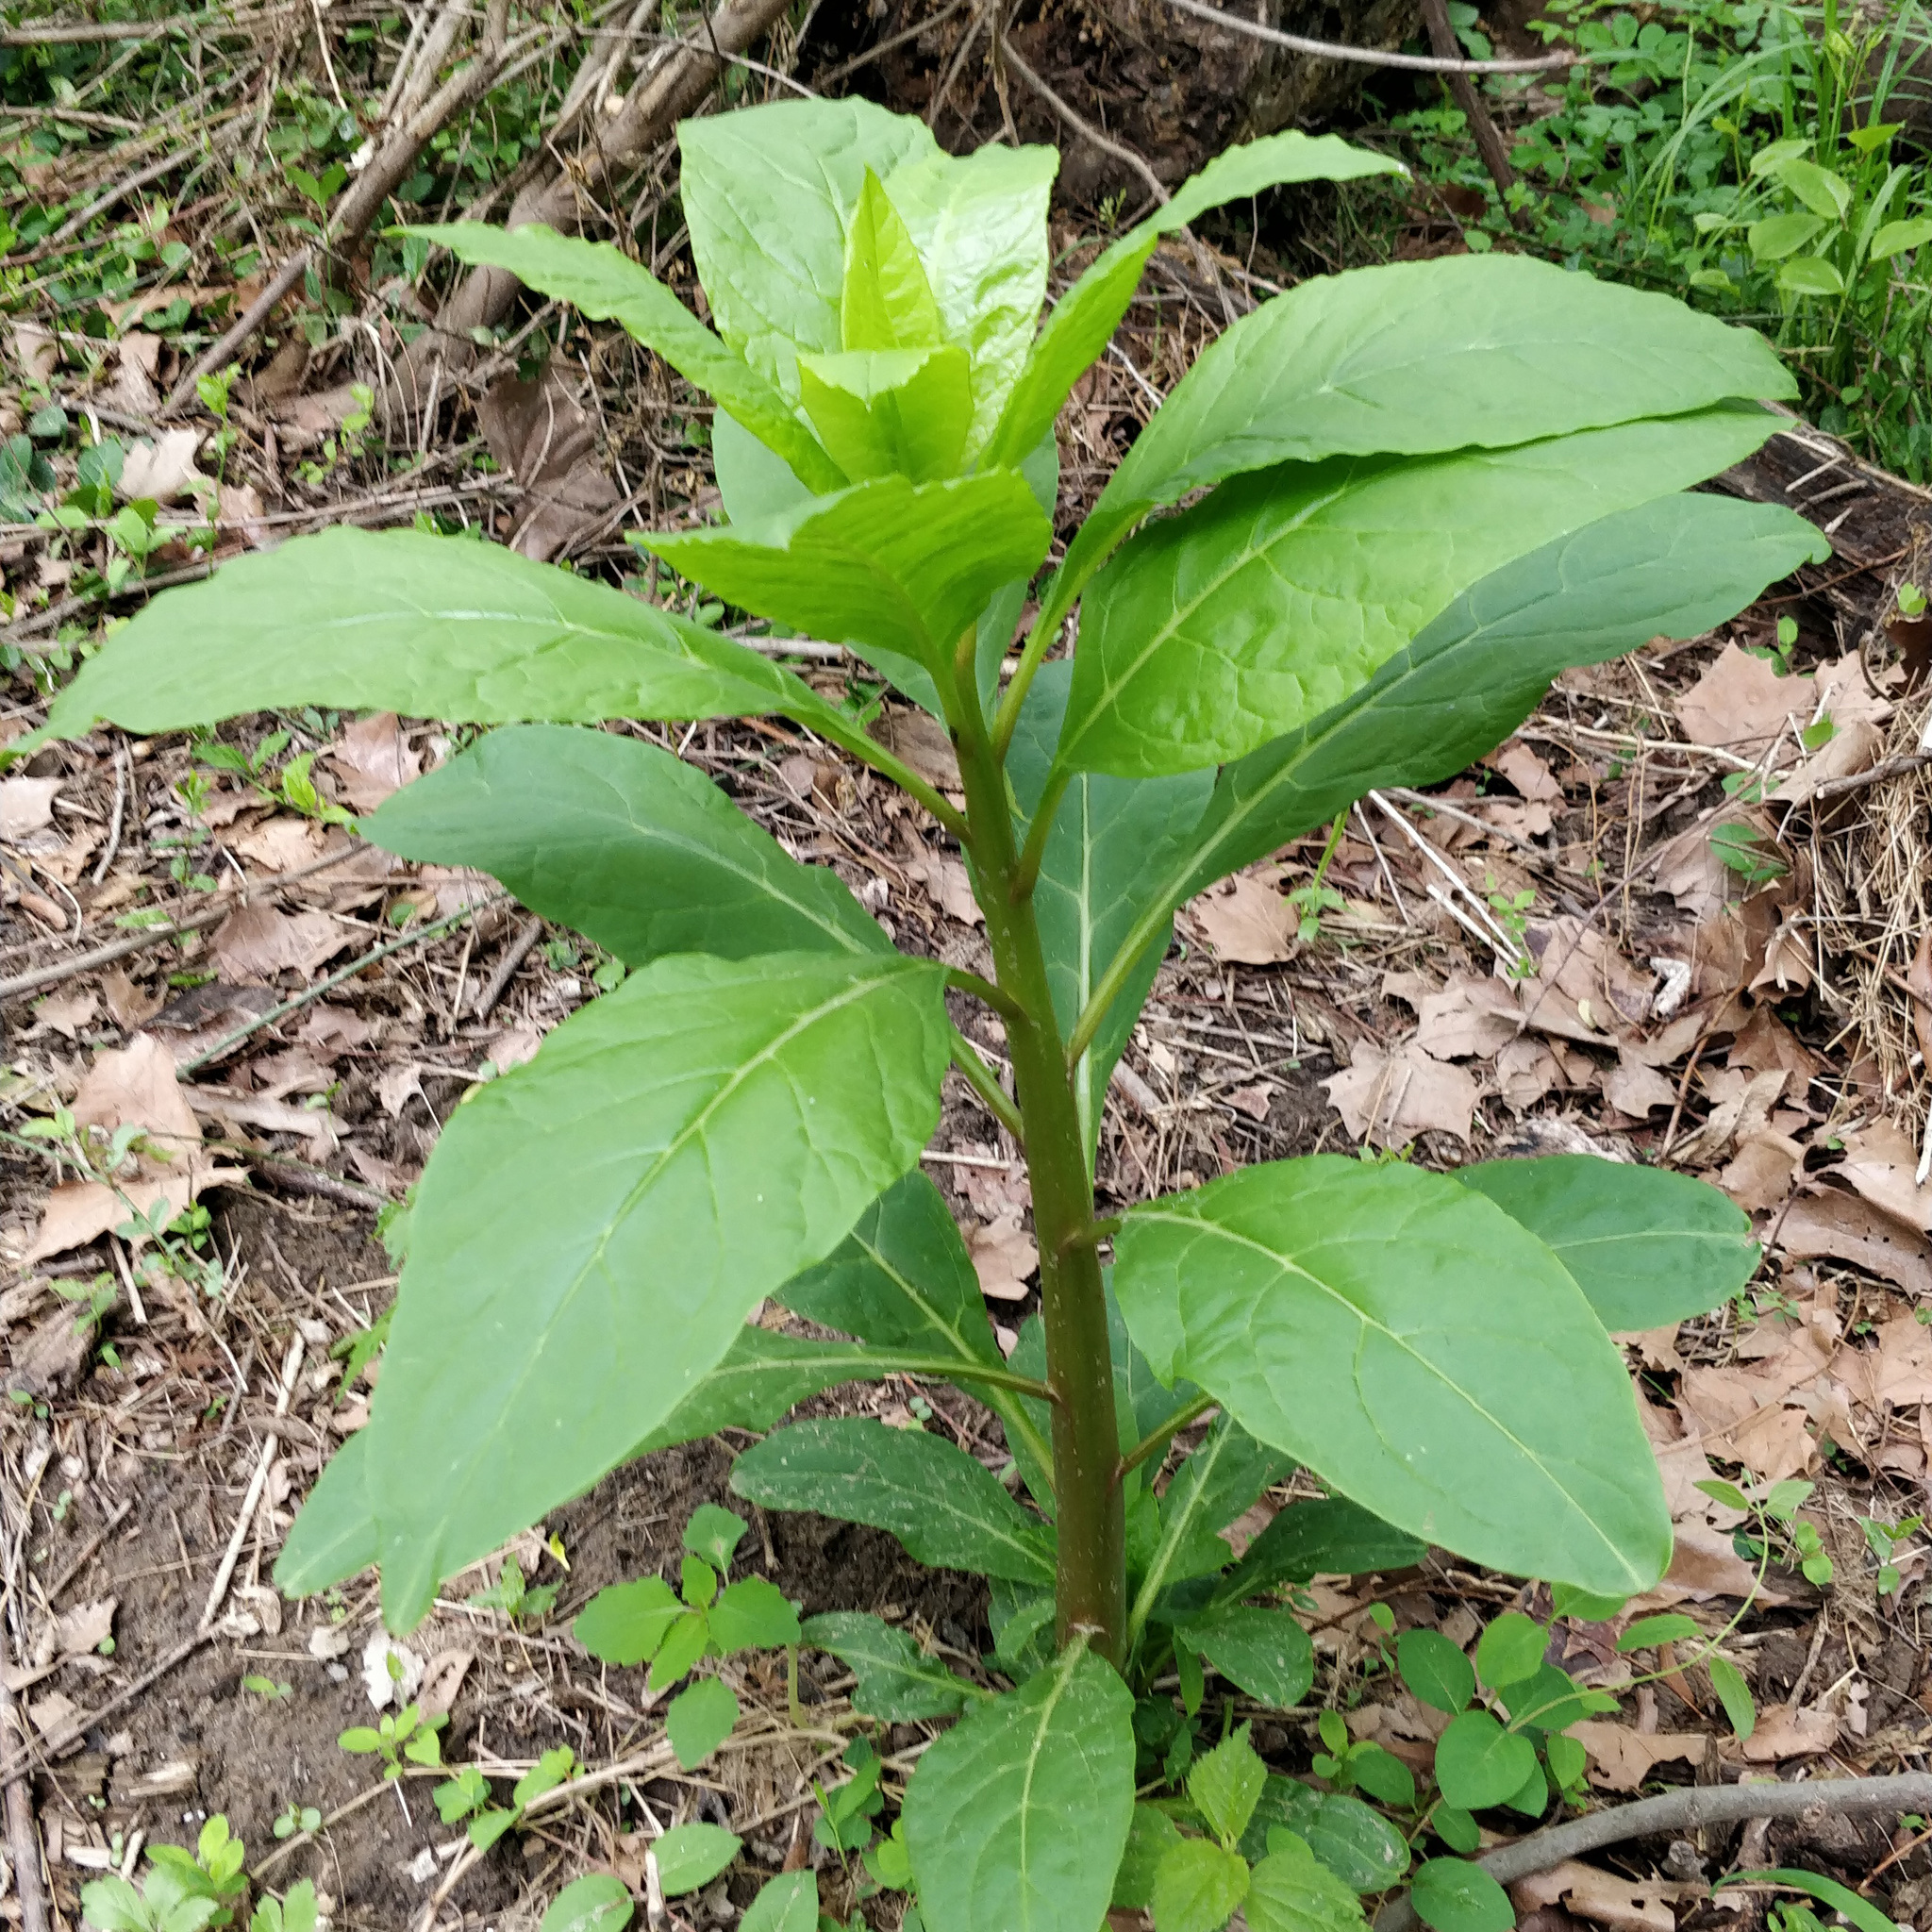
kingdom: Plantae
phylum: Tracheophyta
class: Magnoliopsida
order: Caryophyllales
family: Phytolaccaceae
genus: Phytolacca
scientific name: Phytolacca americana
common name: American pokeweed
